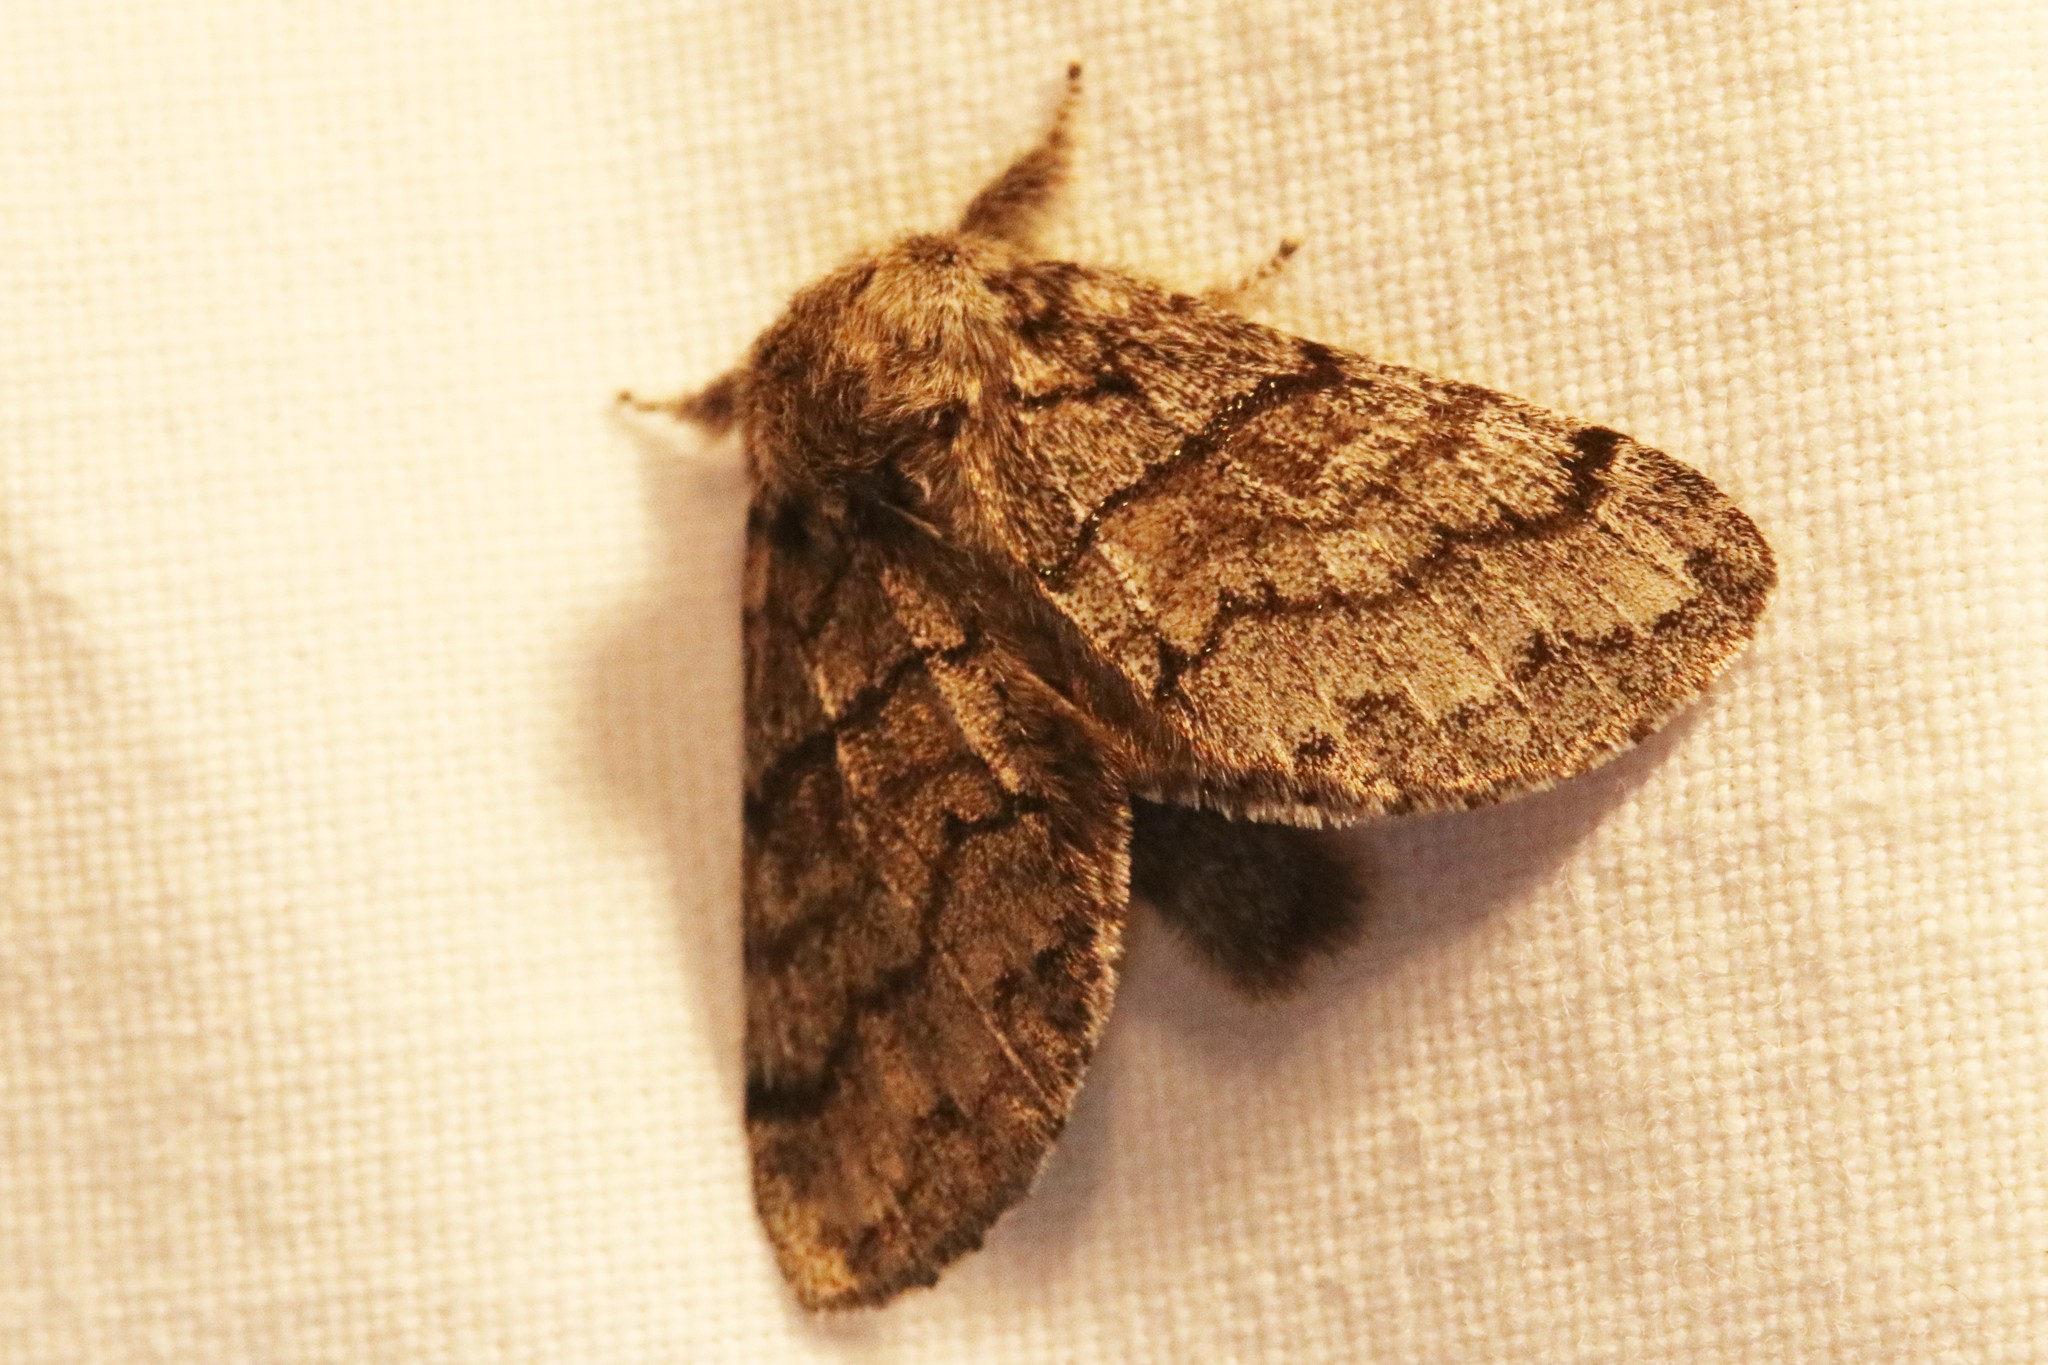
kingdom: Animalia
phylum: Arthropoda
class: Insecta
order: Lepidoptera
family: Notodontidae
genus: Gluphisia
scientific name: Gluphisia septentrionis
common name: Common gluphisia
